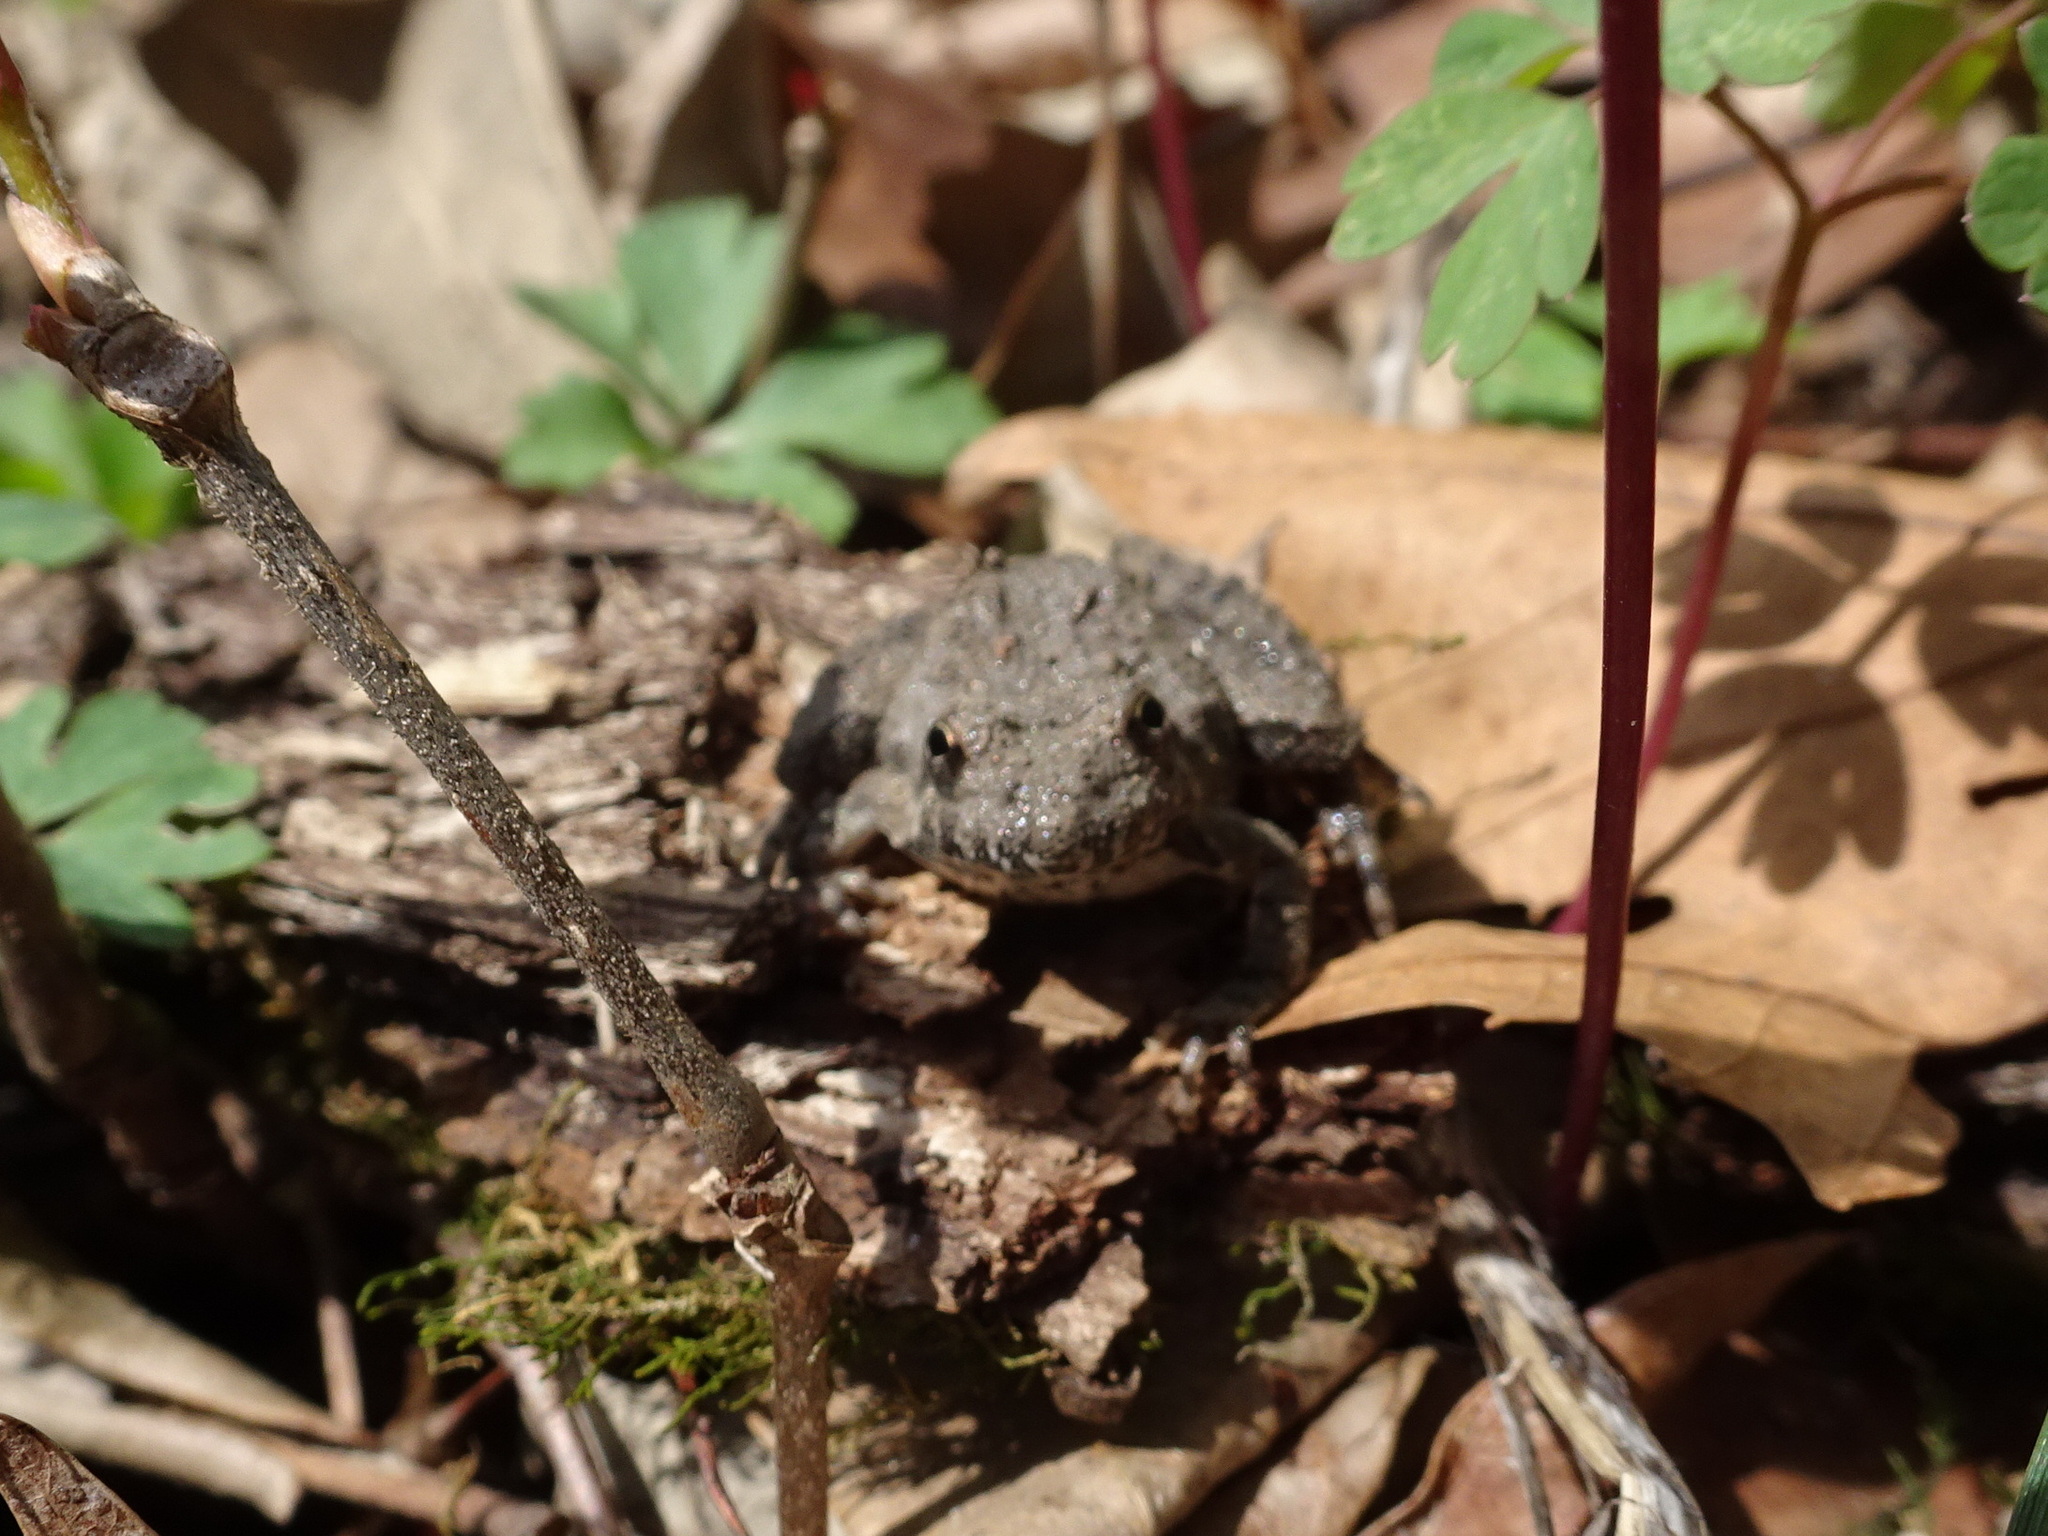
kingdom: Animalia
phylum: Chordata
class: Amphibia
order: Anura
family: Hylidae
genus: Acris
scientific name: Acris blanchardi
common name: Blanchard's cricket frog
